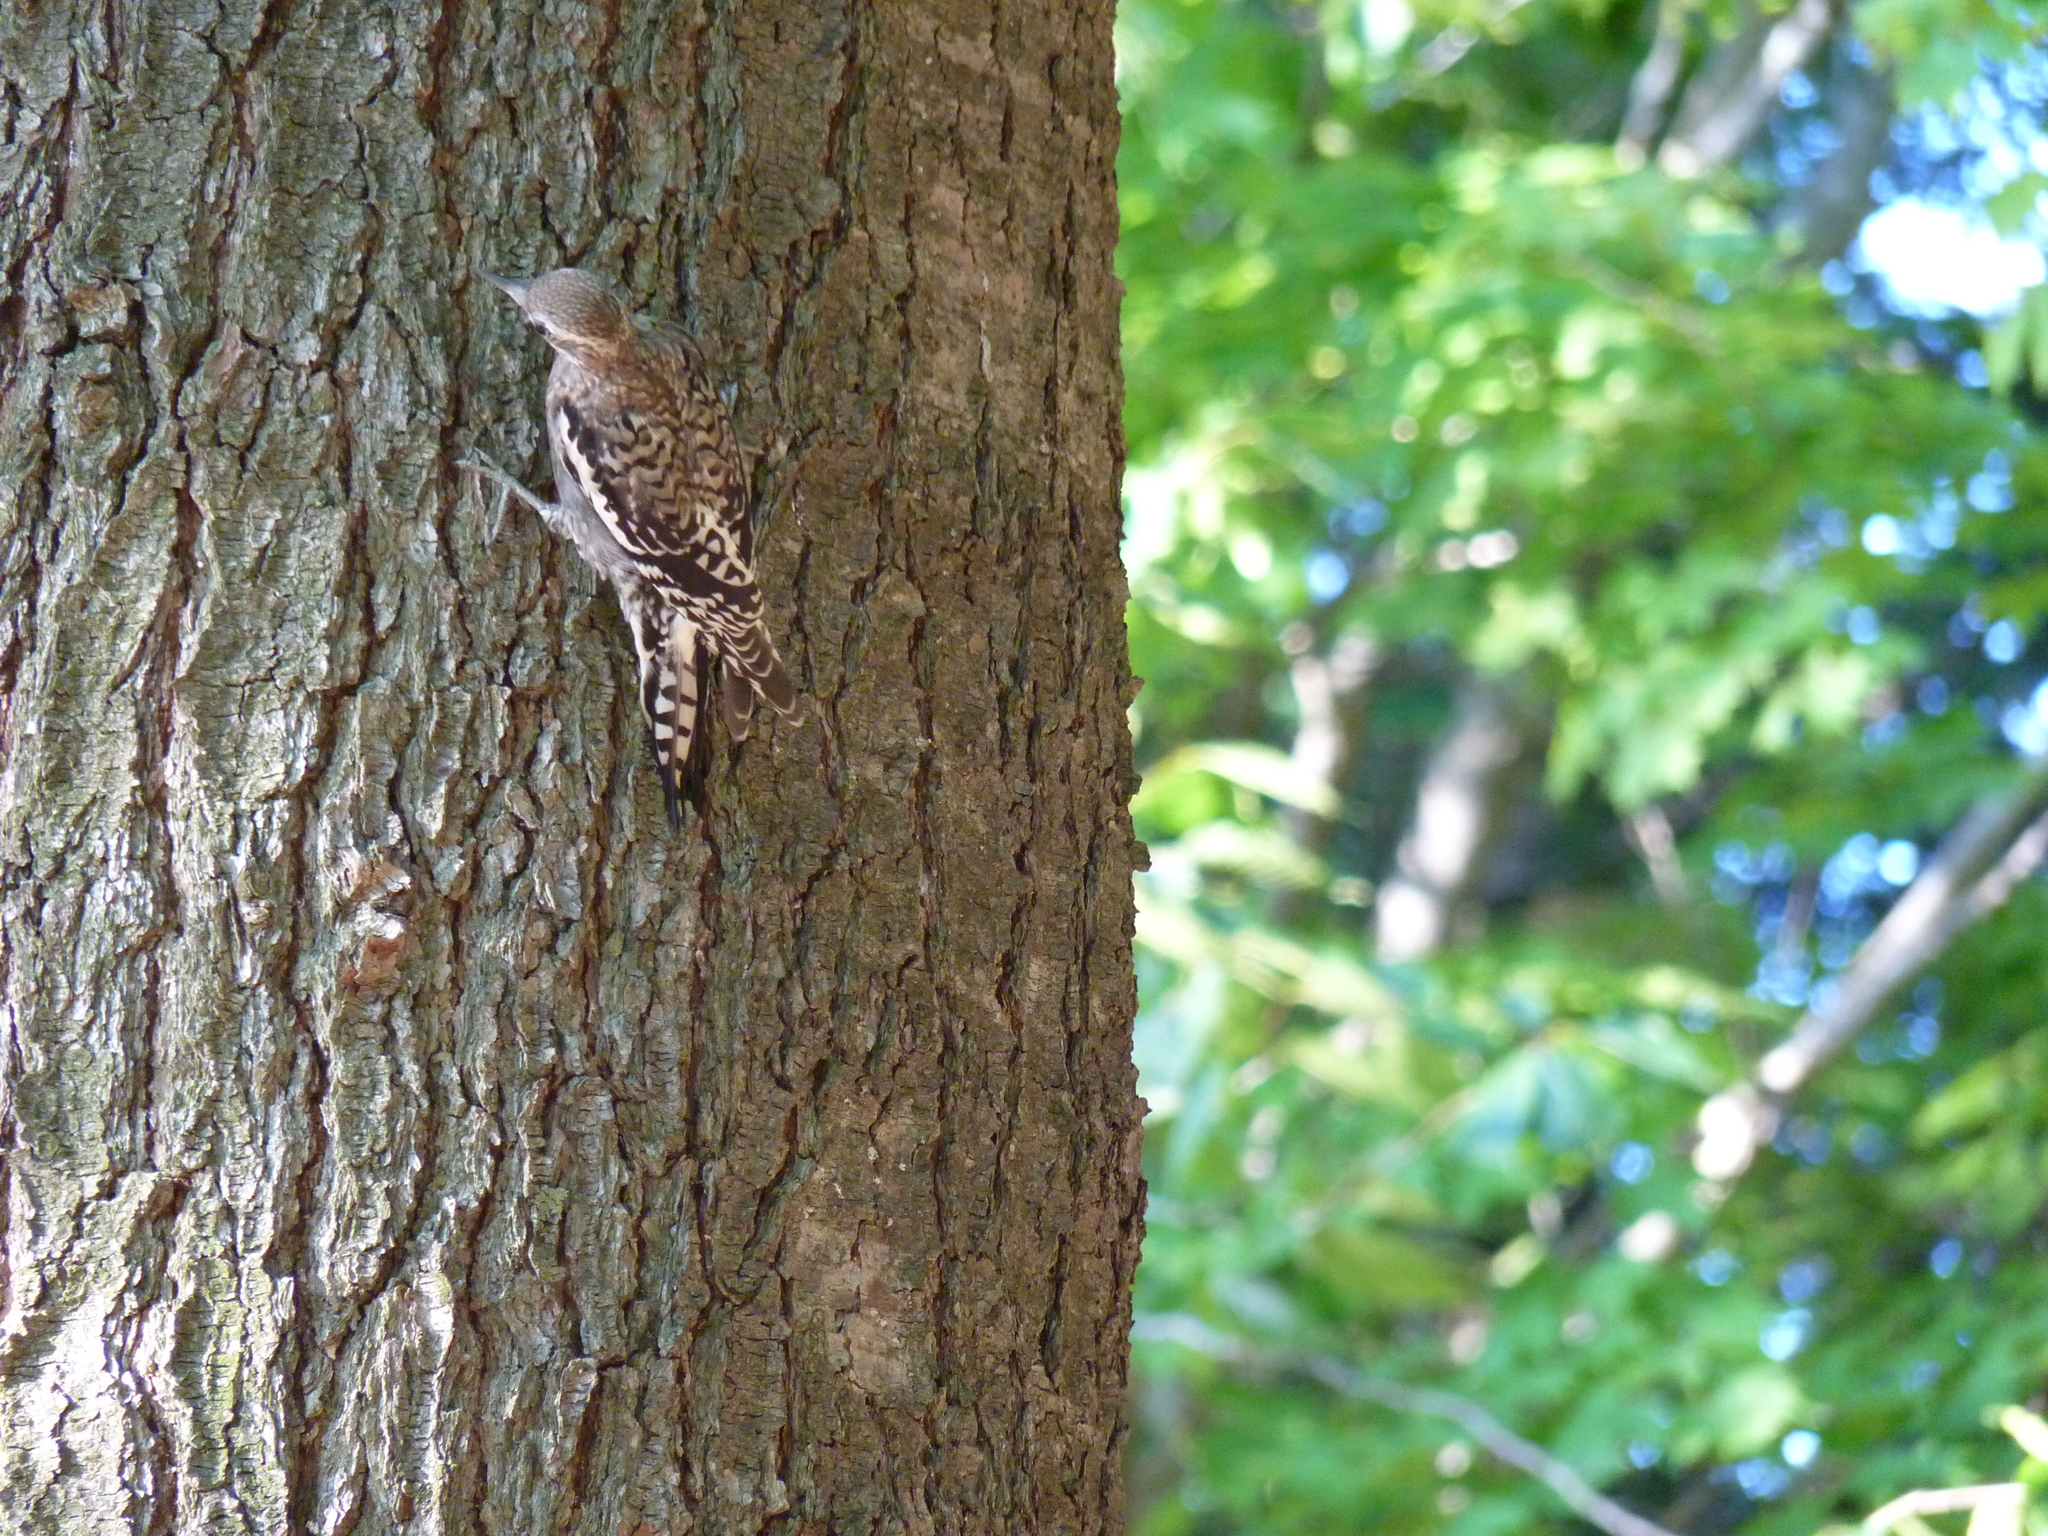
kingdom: Animalia
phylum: Chordata
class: Aves
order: Piciformes
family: Picidae
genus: Sphyrapicus
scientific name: Sphyrapicus varius
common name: Yellow-bellied sapsucker
